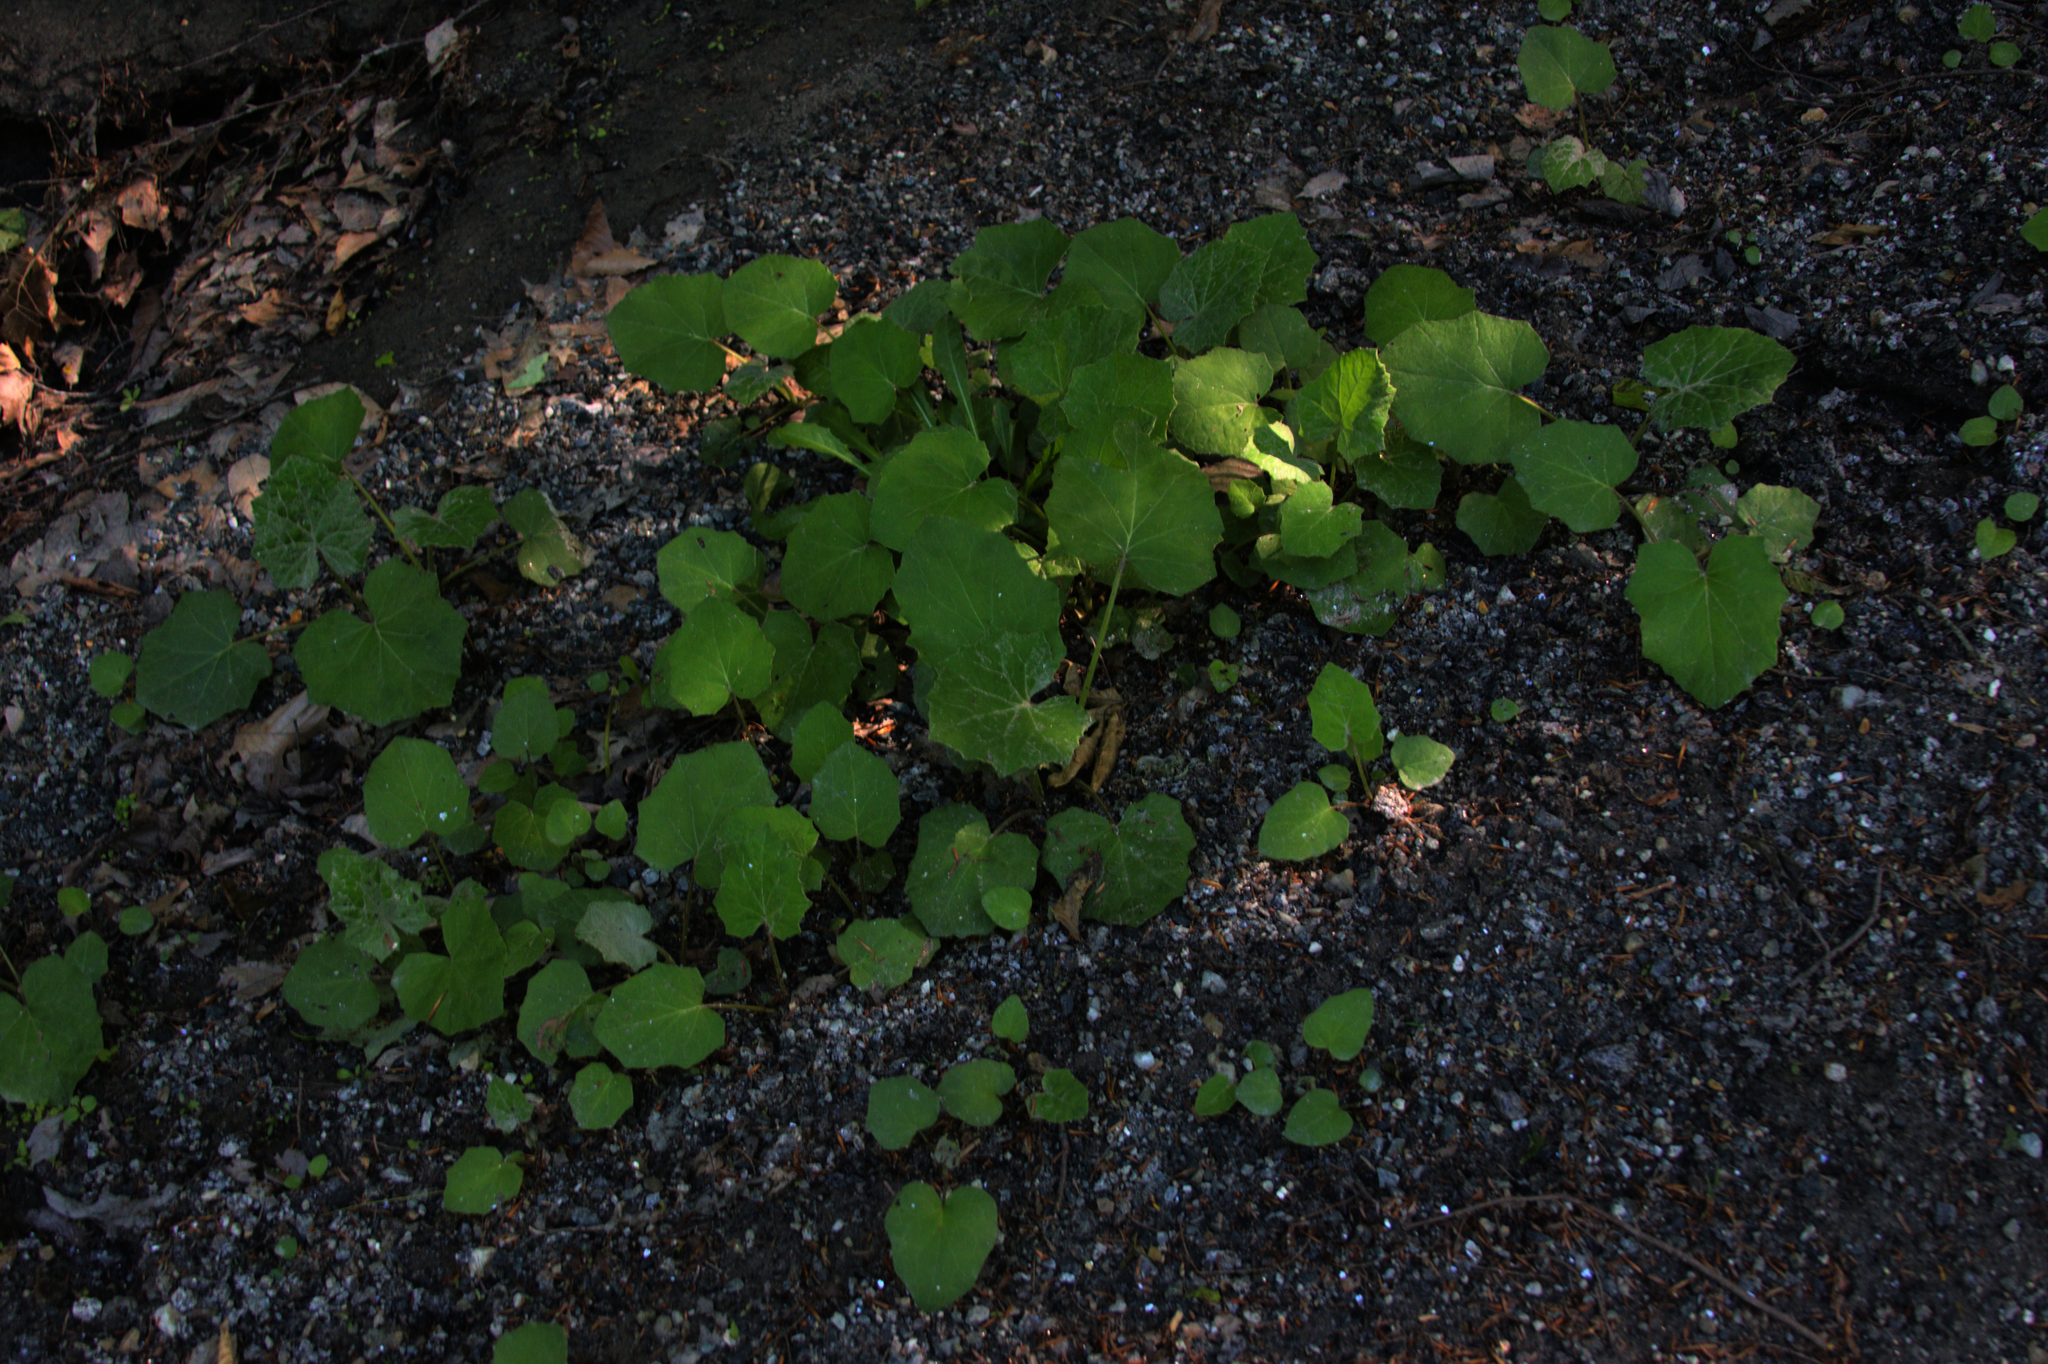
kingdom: Plantae
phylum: Tracheophyta
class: Magnoliopsida
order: Asterales
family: Asteraceae
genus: Tussilago
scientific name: Tussilago farfara
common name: Coltsfoot
